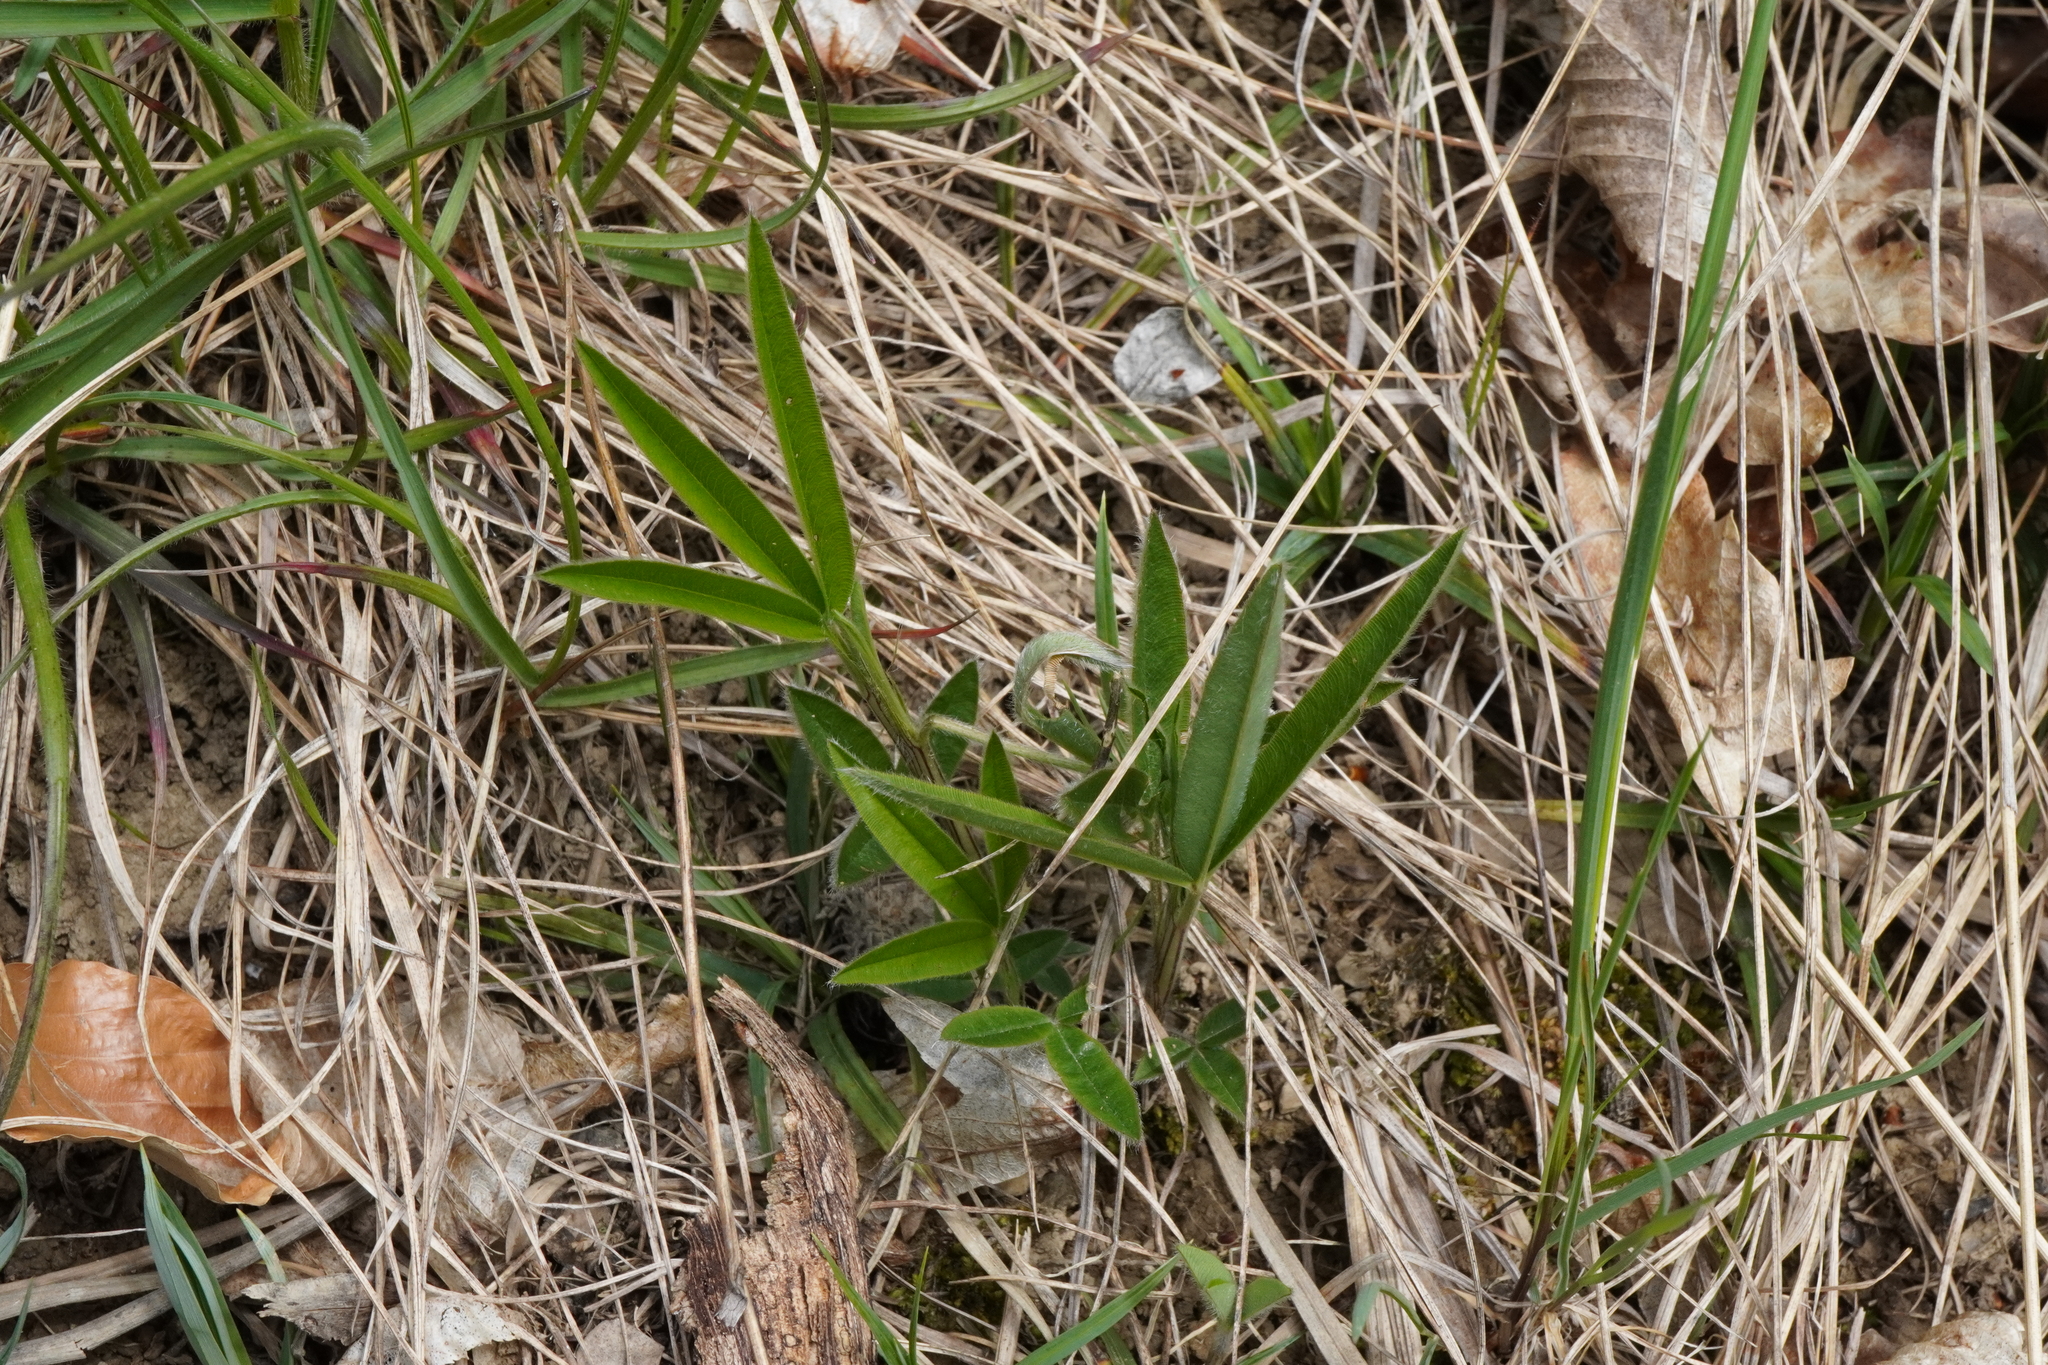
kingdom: Plantae
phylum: Tracheophyta
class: Magnoliopsida
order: Fabales
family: Fabaceae
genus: Trifolium
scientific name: Trifolium alpestre
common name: Owl-head clover
